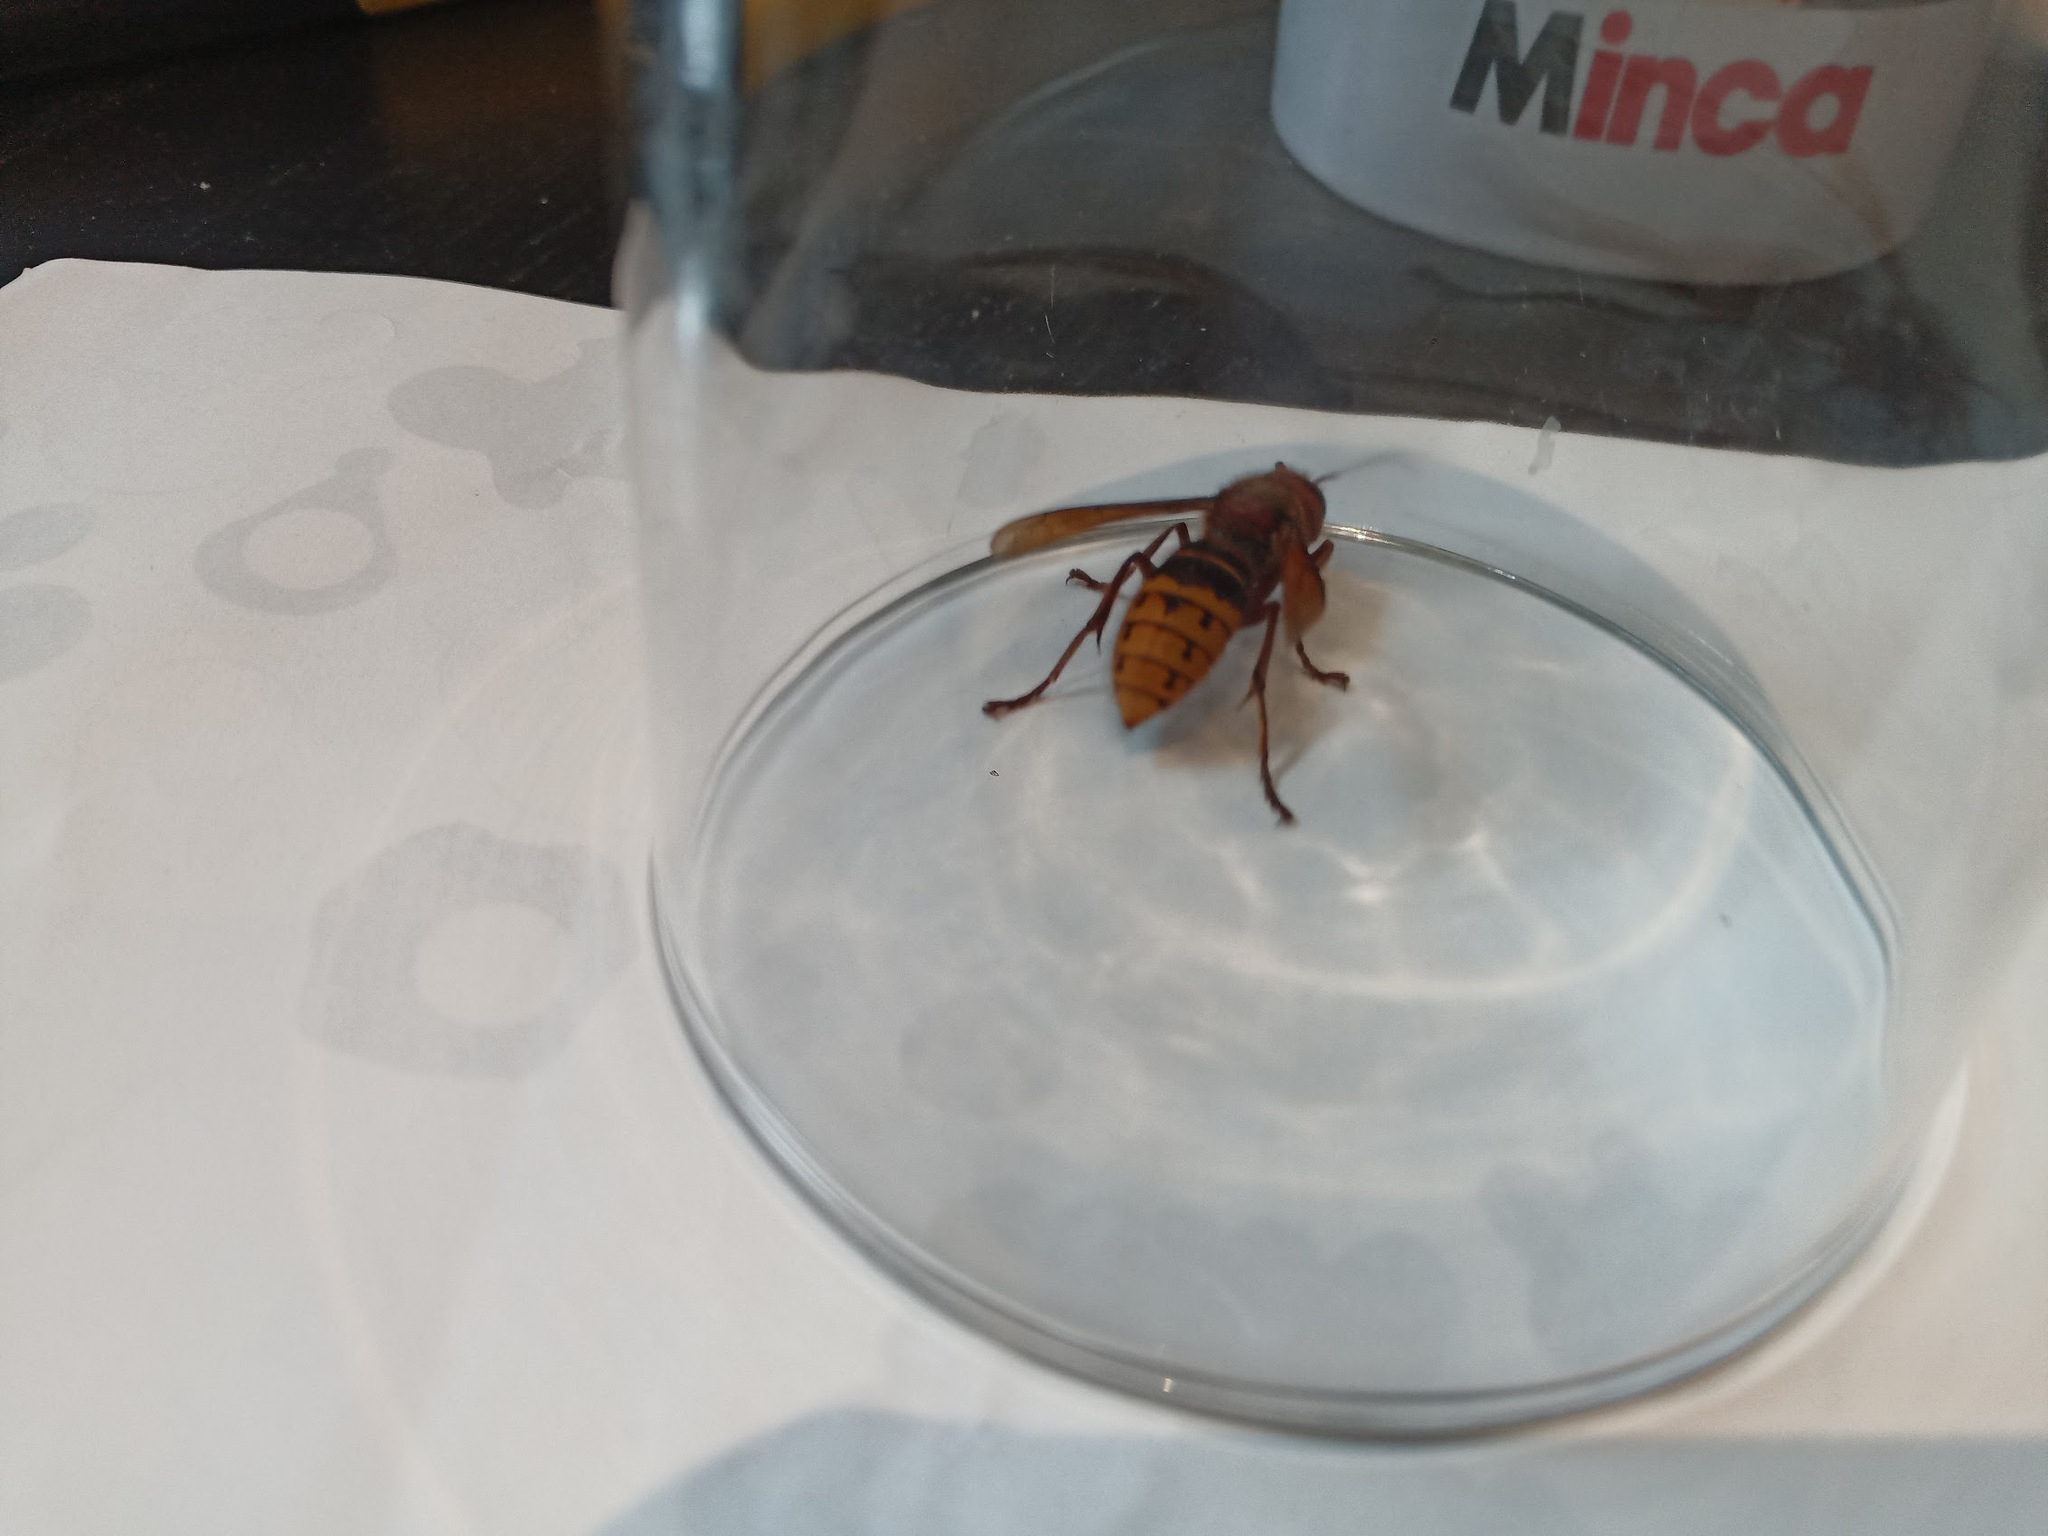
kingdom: Animalia
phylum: Arthropoda
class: Insecta
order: Hymenoptera
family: Vespidae
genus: Vespa
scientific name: Vespa crabro
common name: Hornet
